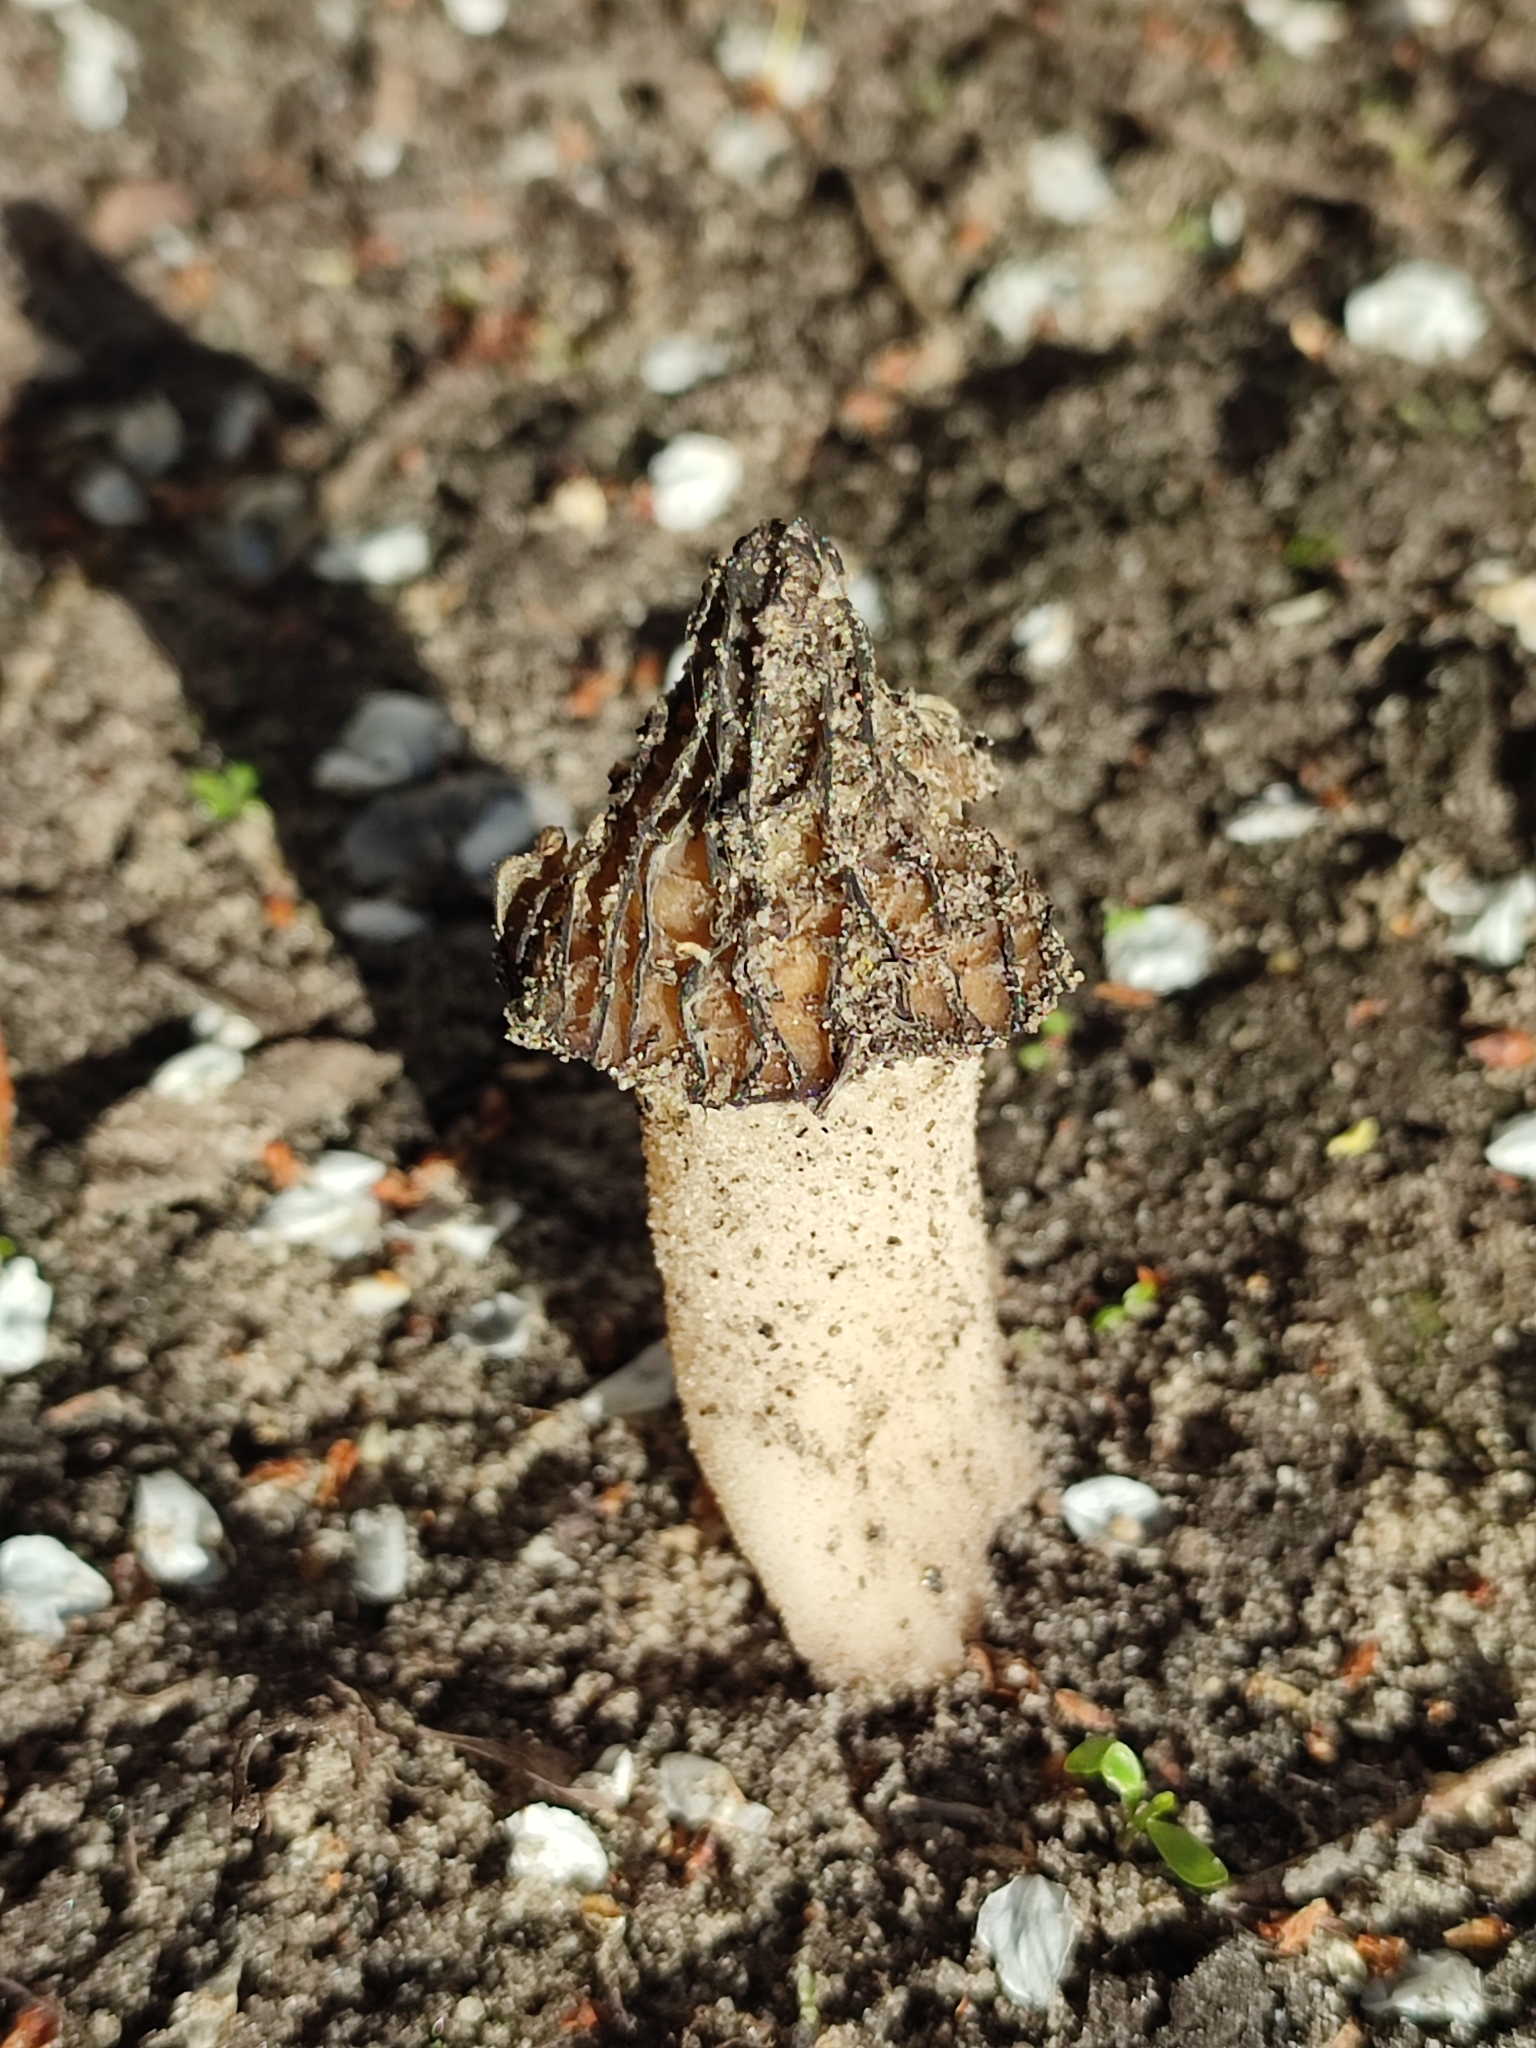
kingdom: Fungi
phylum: Ascomycota
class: Pezizomycetes
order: Pezizales
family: Morchellaceae
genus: Morchella
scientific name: Morchella semilibera
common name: Semifree morel
